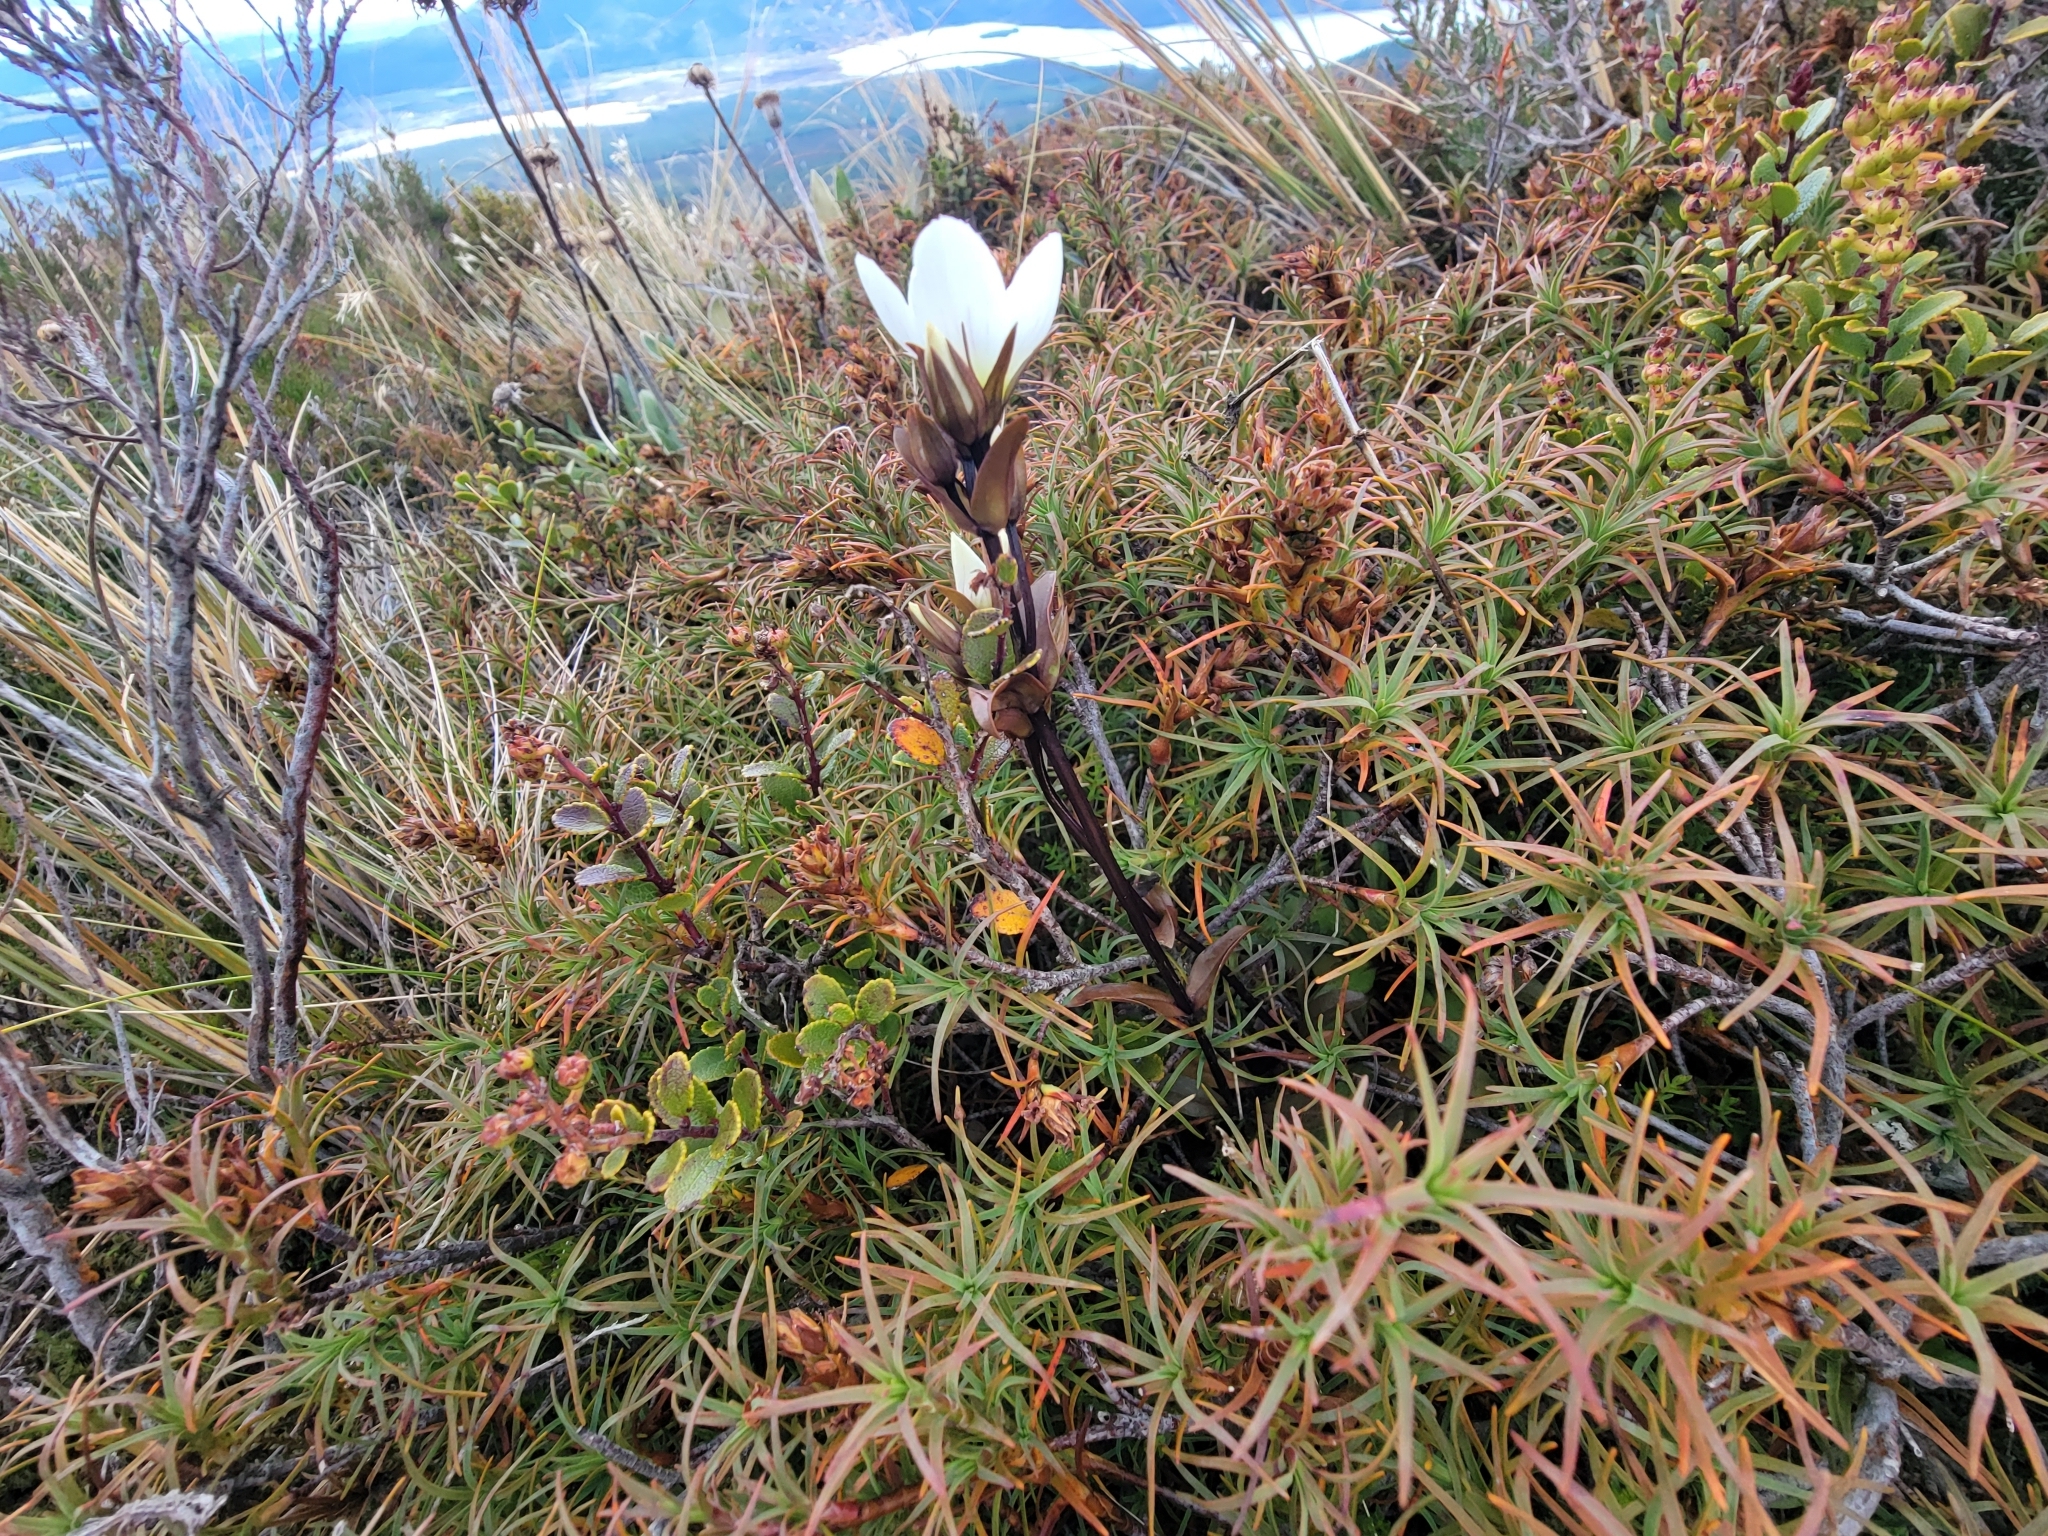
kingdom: Plantae
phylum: Tracheophyta
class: Magnoliopsida
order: Gentianales
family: Gentianaceae
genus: Gentianella
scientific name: Gentianella bellidifolia
